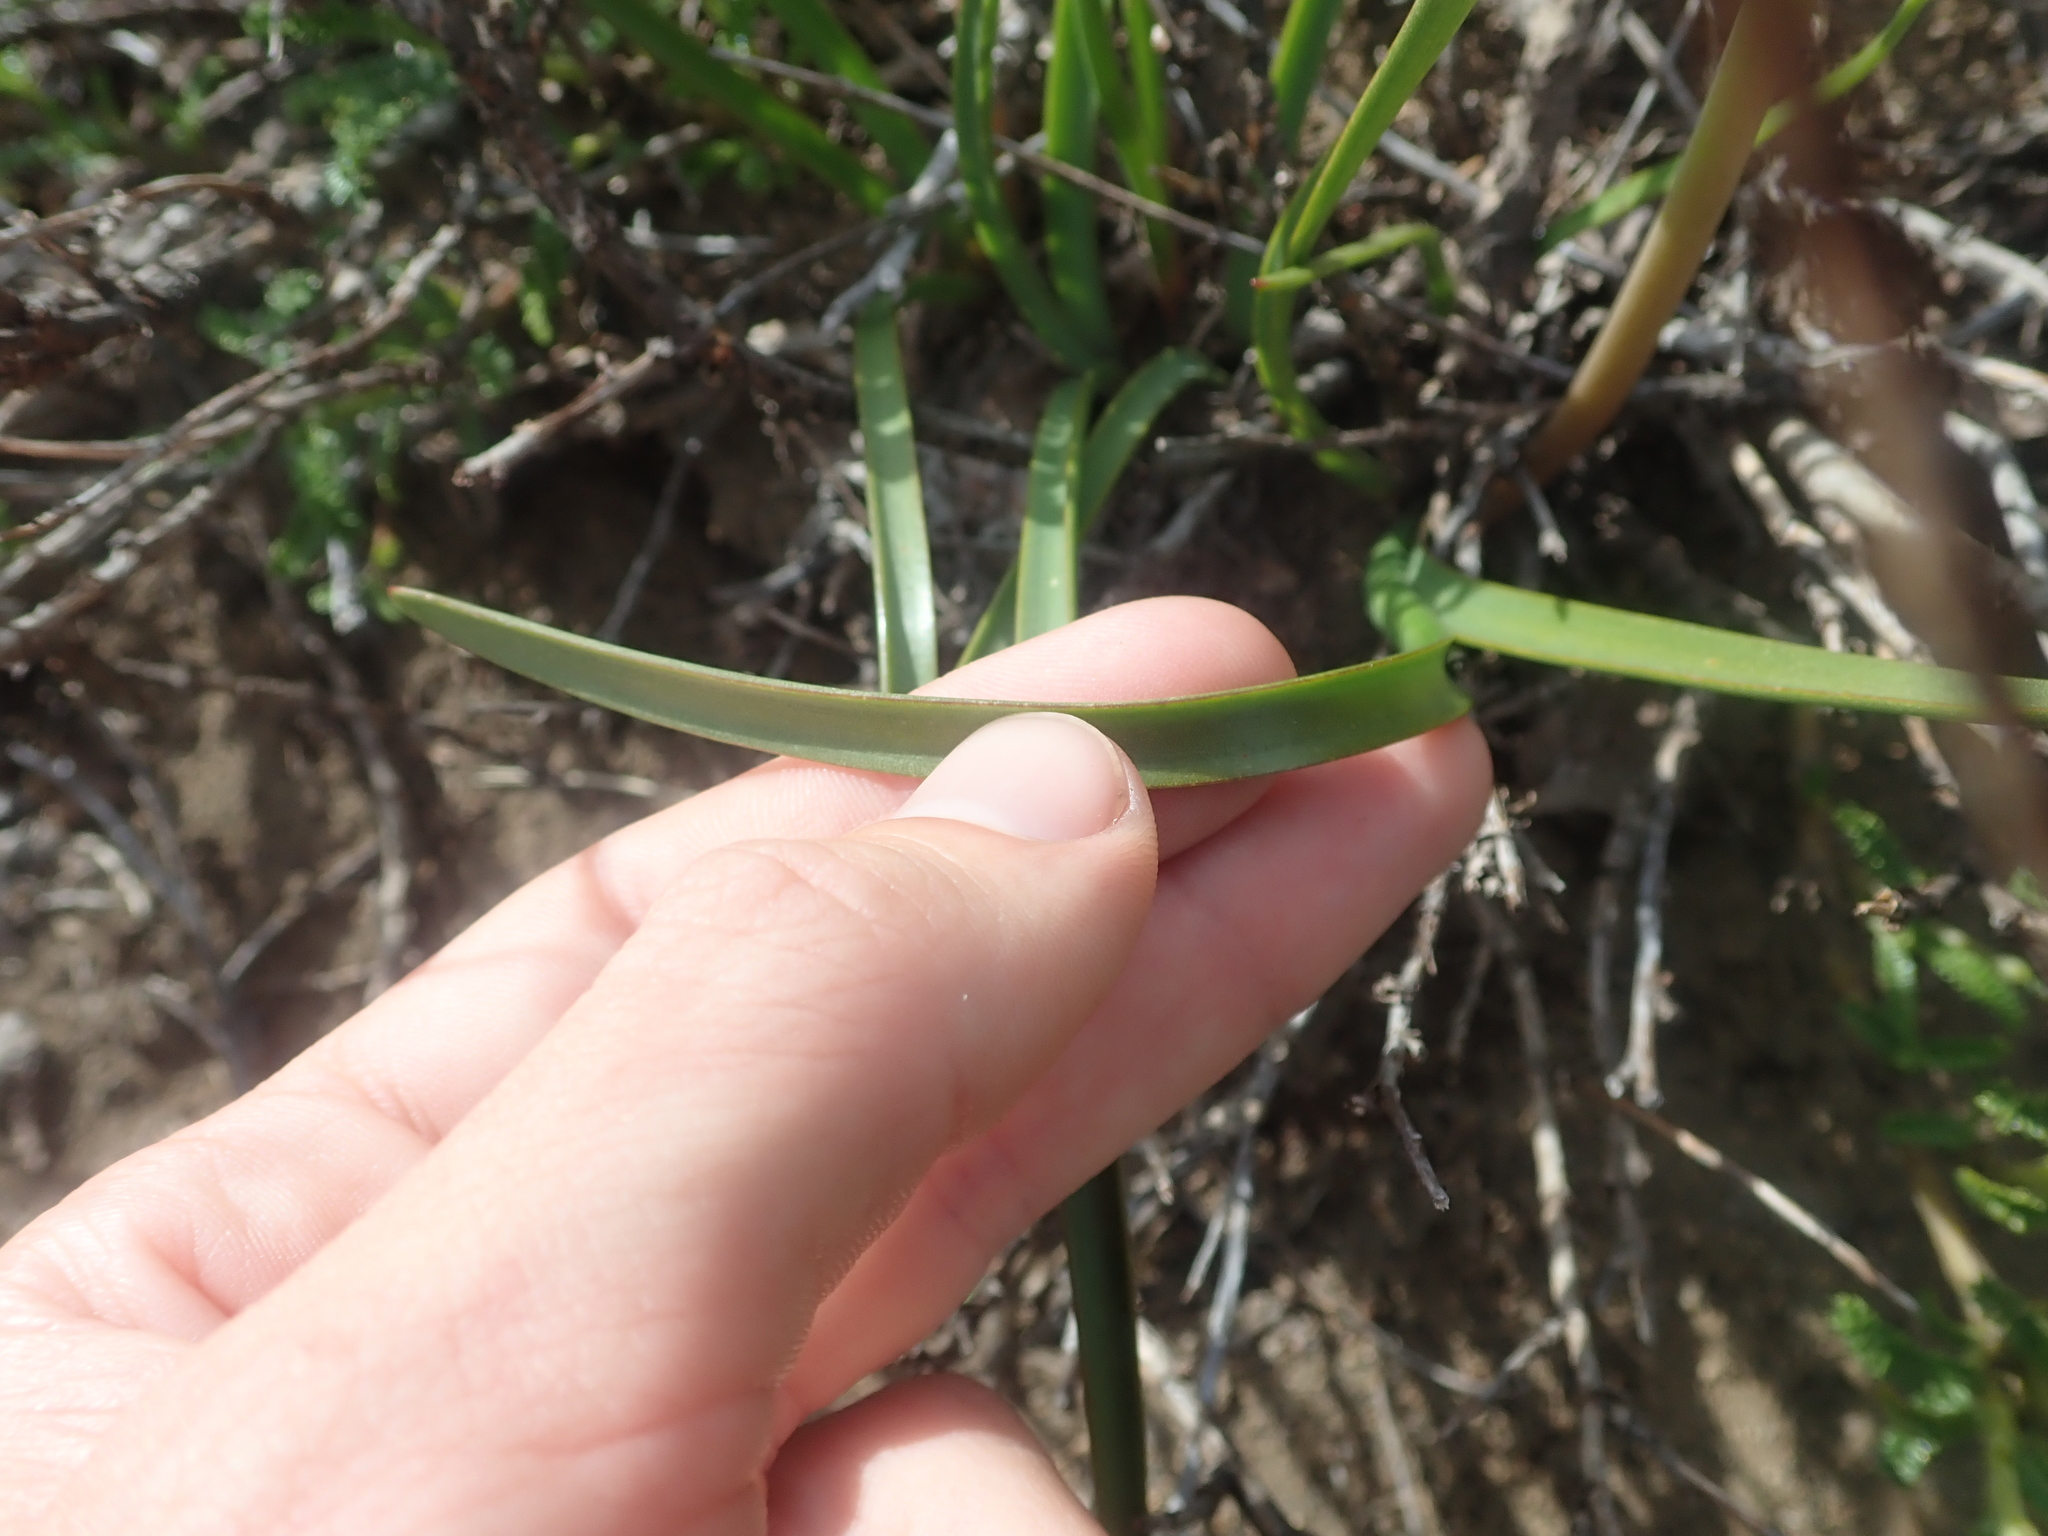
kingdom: Plantae
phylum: Tracheophyta
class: Liliopsida
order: Asparagales
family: Amaryllidaceae
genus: Rhodolirium
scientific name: Rhodolirium andicola
